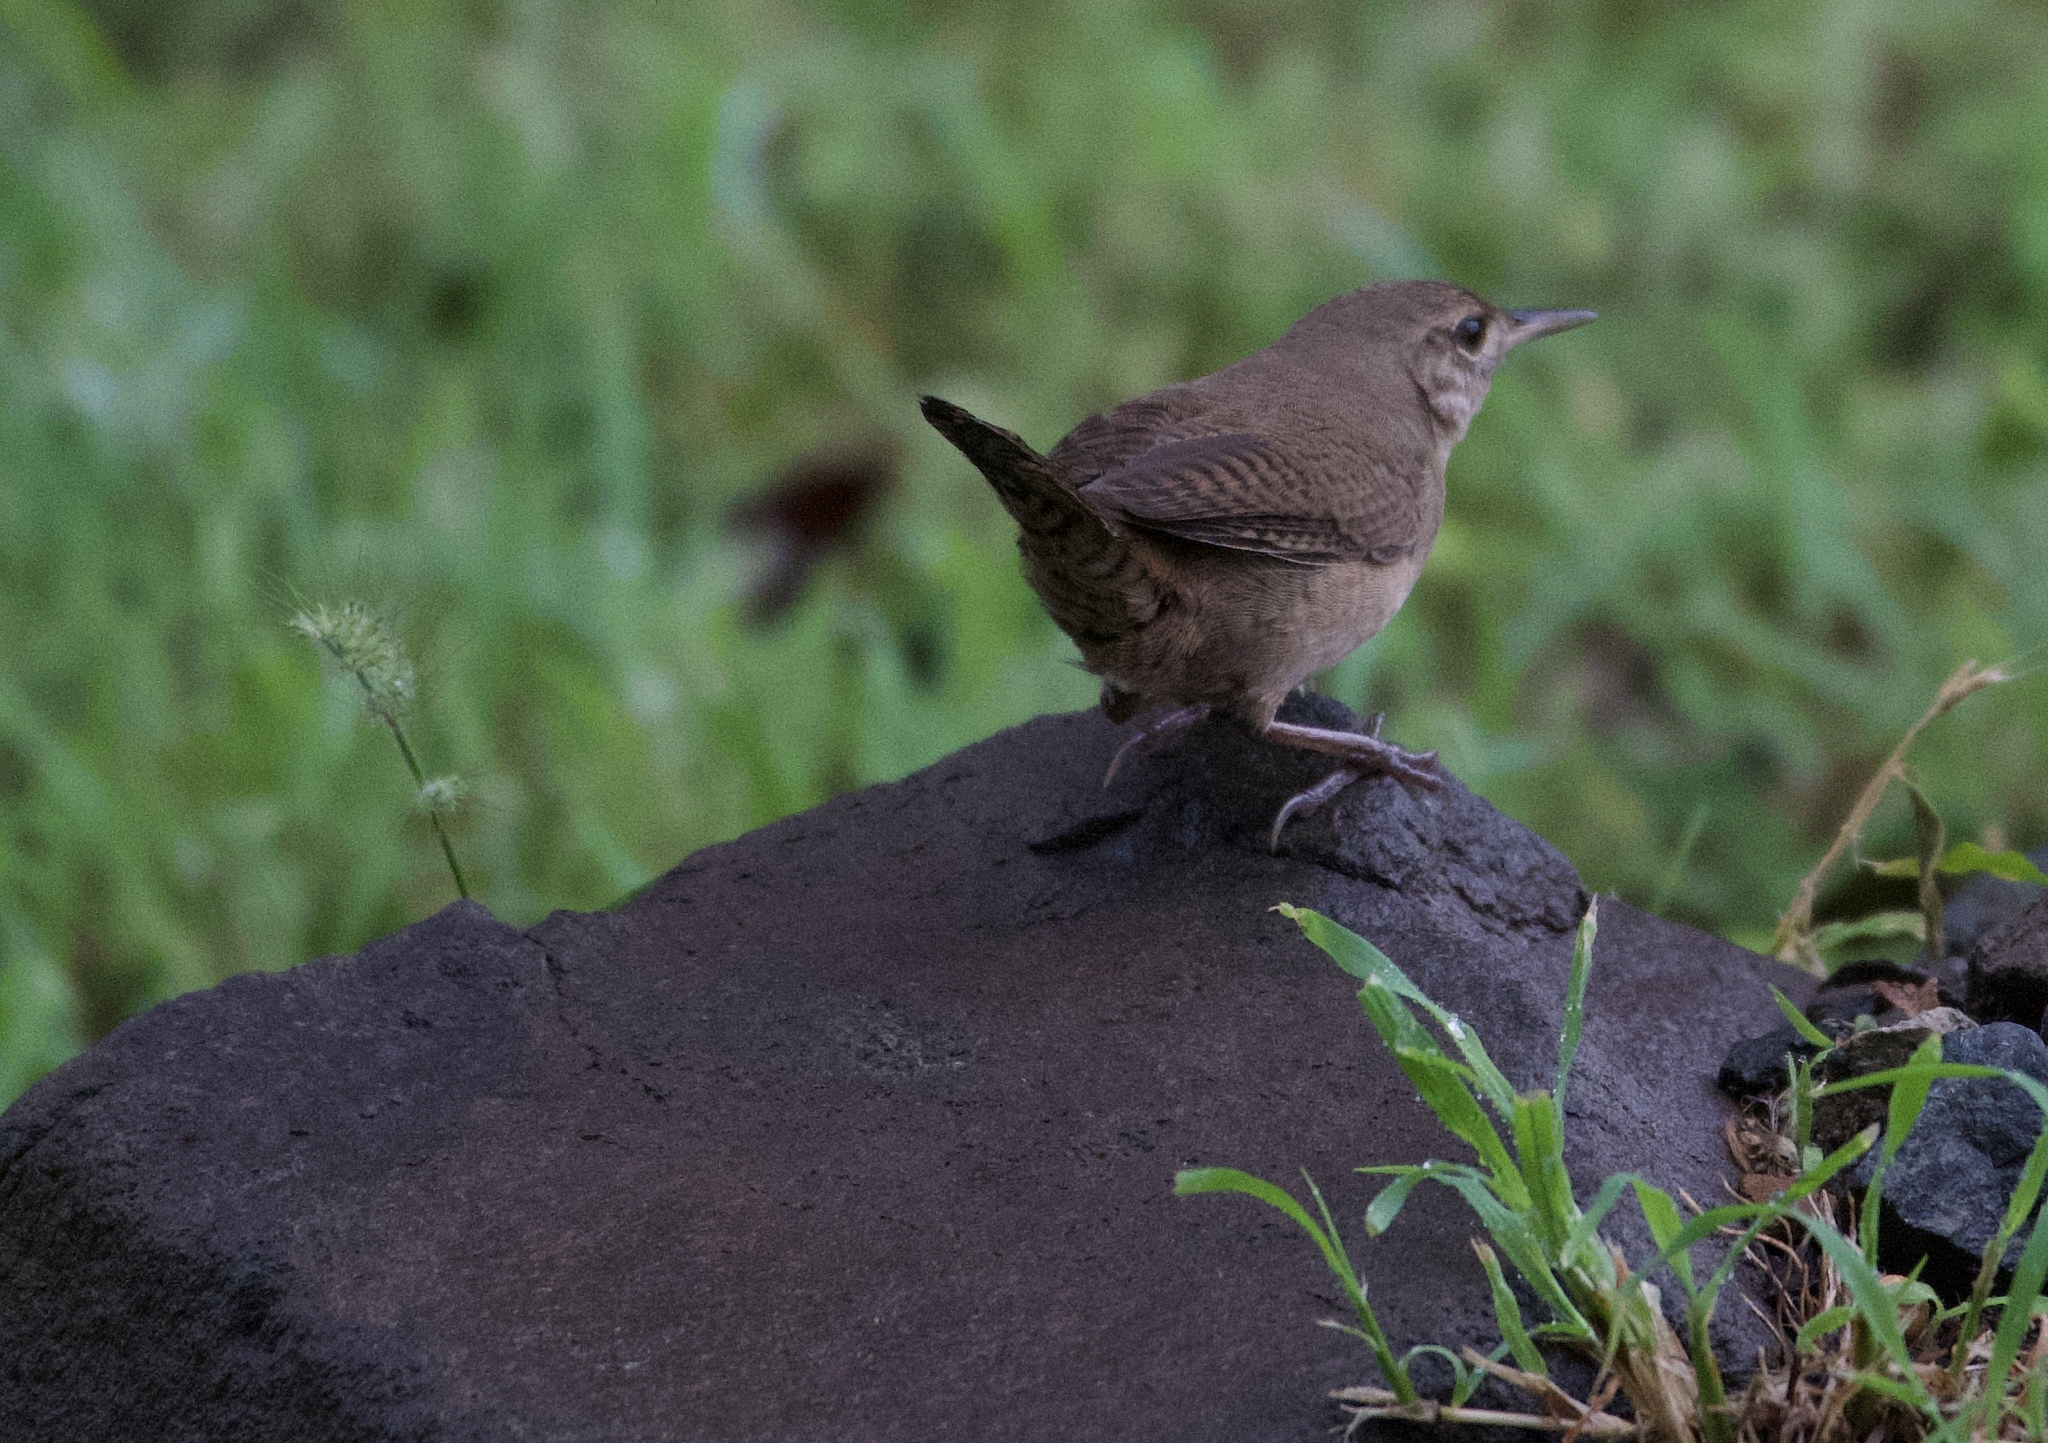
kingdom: Animalia
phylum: Chordata
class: Aves
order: Passeriformes
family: Troglodytidae
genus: Troglodytes
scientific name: Troglodytes aedon
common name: House wren
